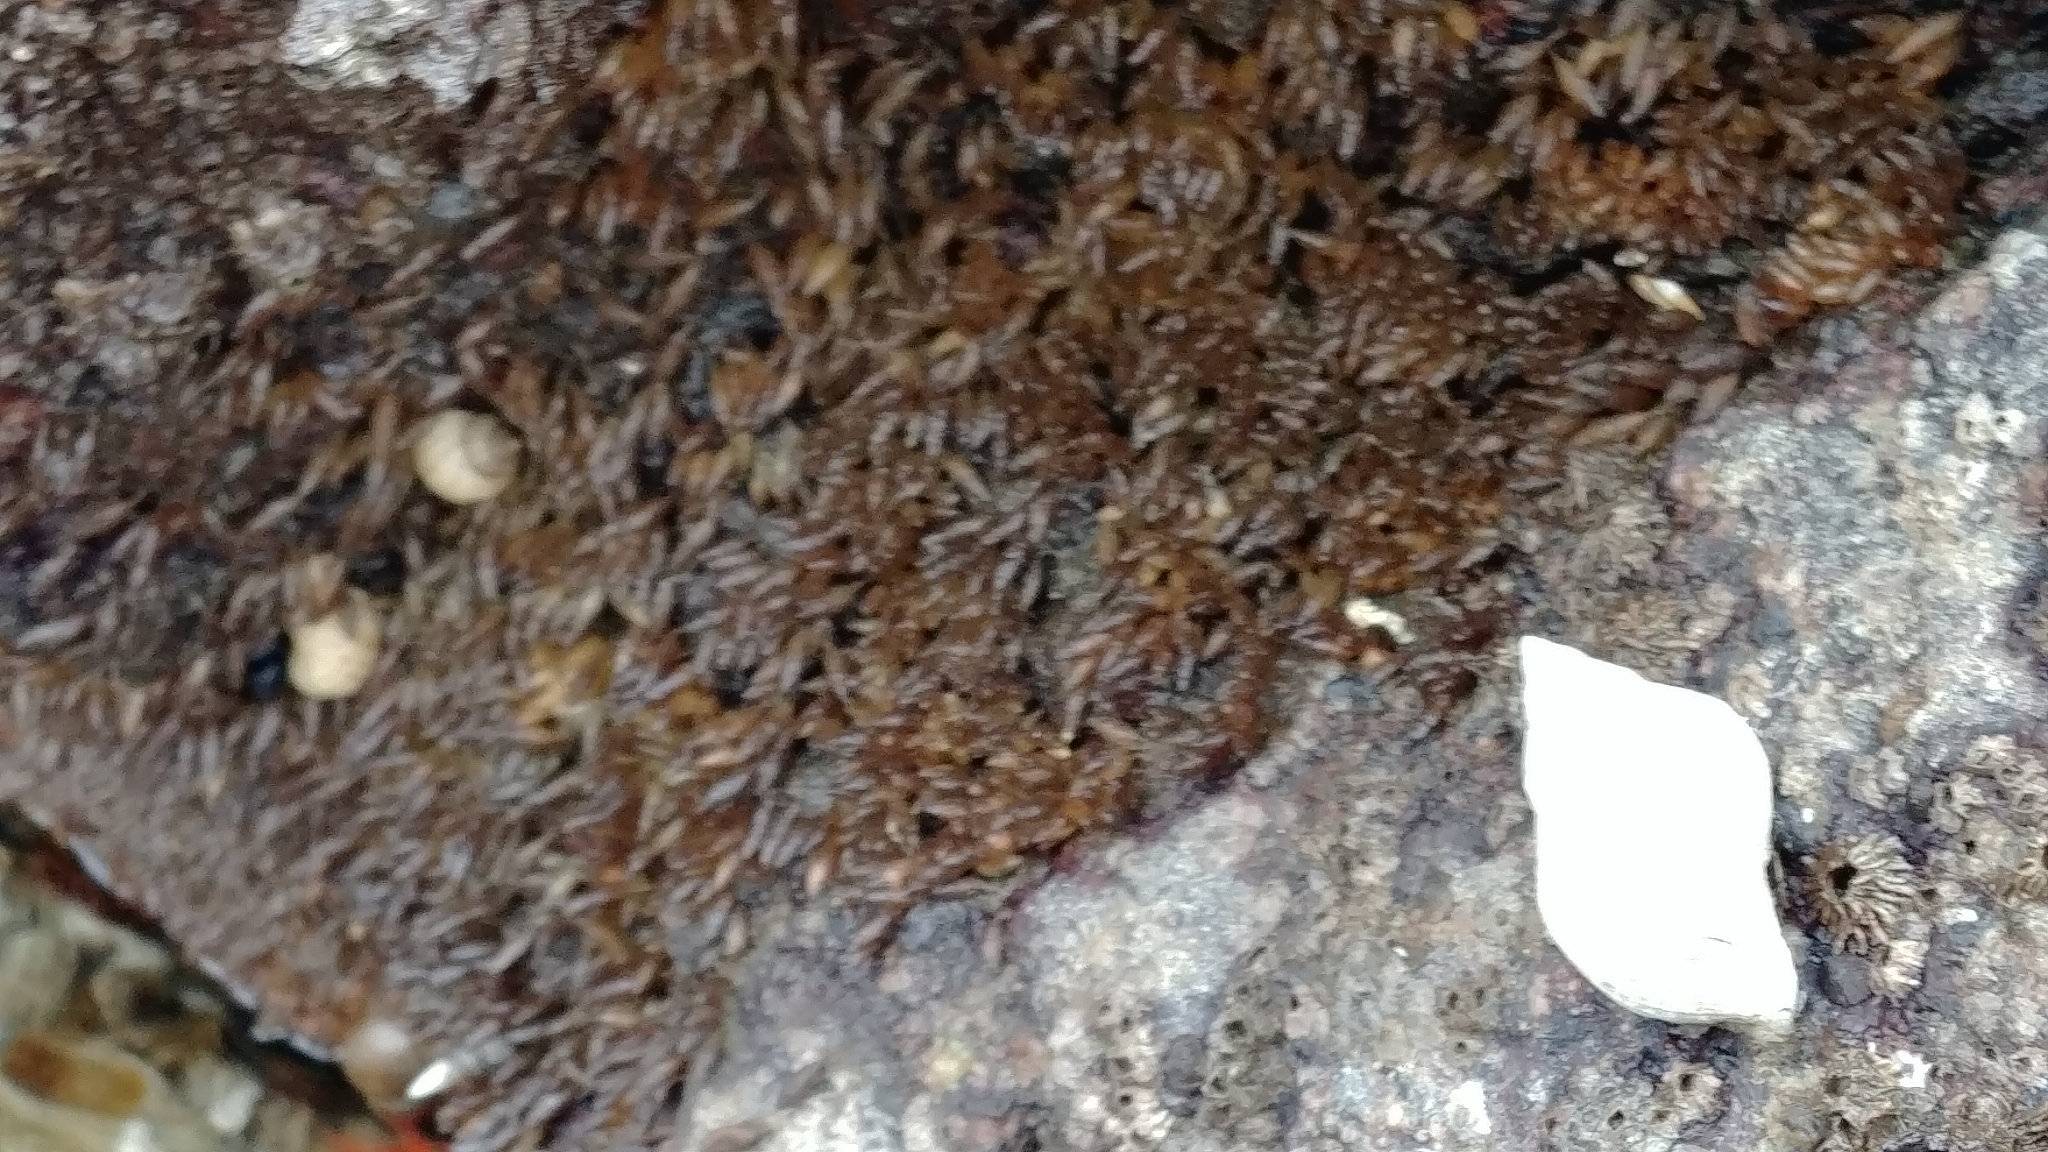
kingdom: Animalia
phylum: Mollusca
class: Gastropoda
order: Neogastropoda
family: Muricidae
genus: Nucella
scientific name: Nucella lamellosa
